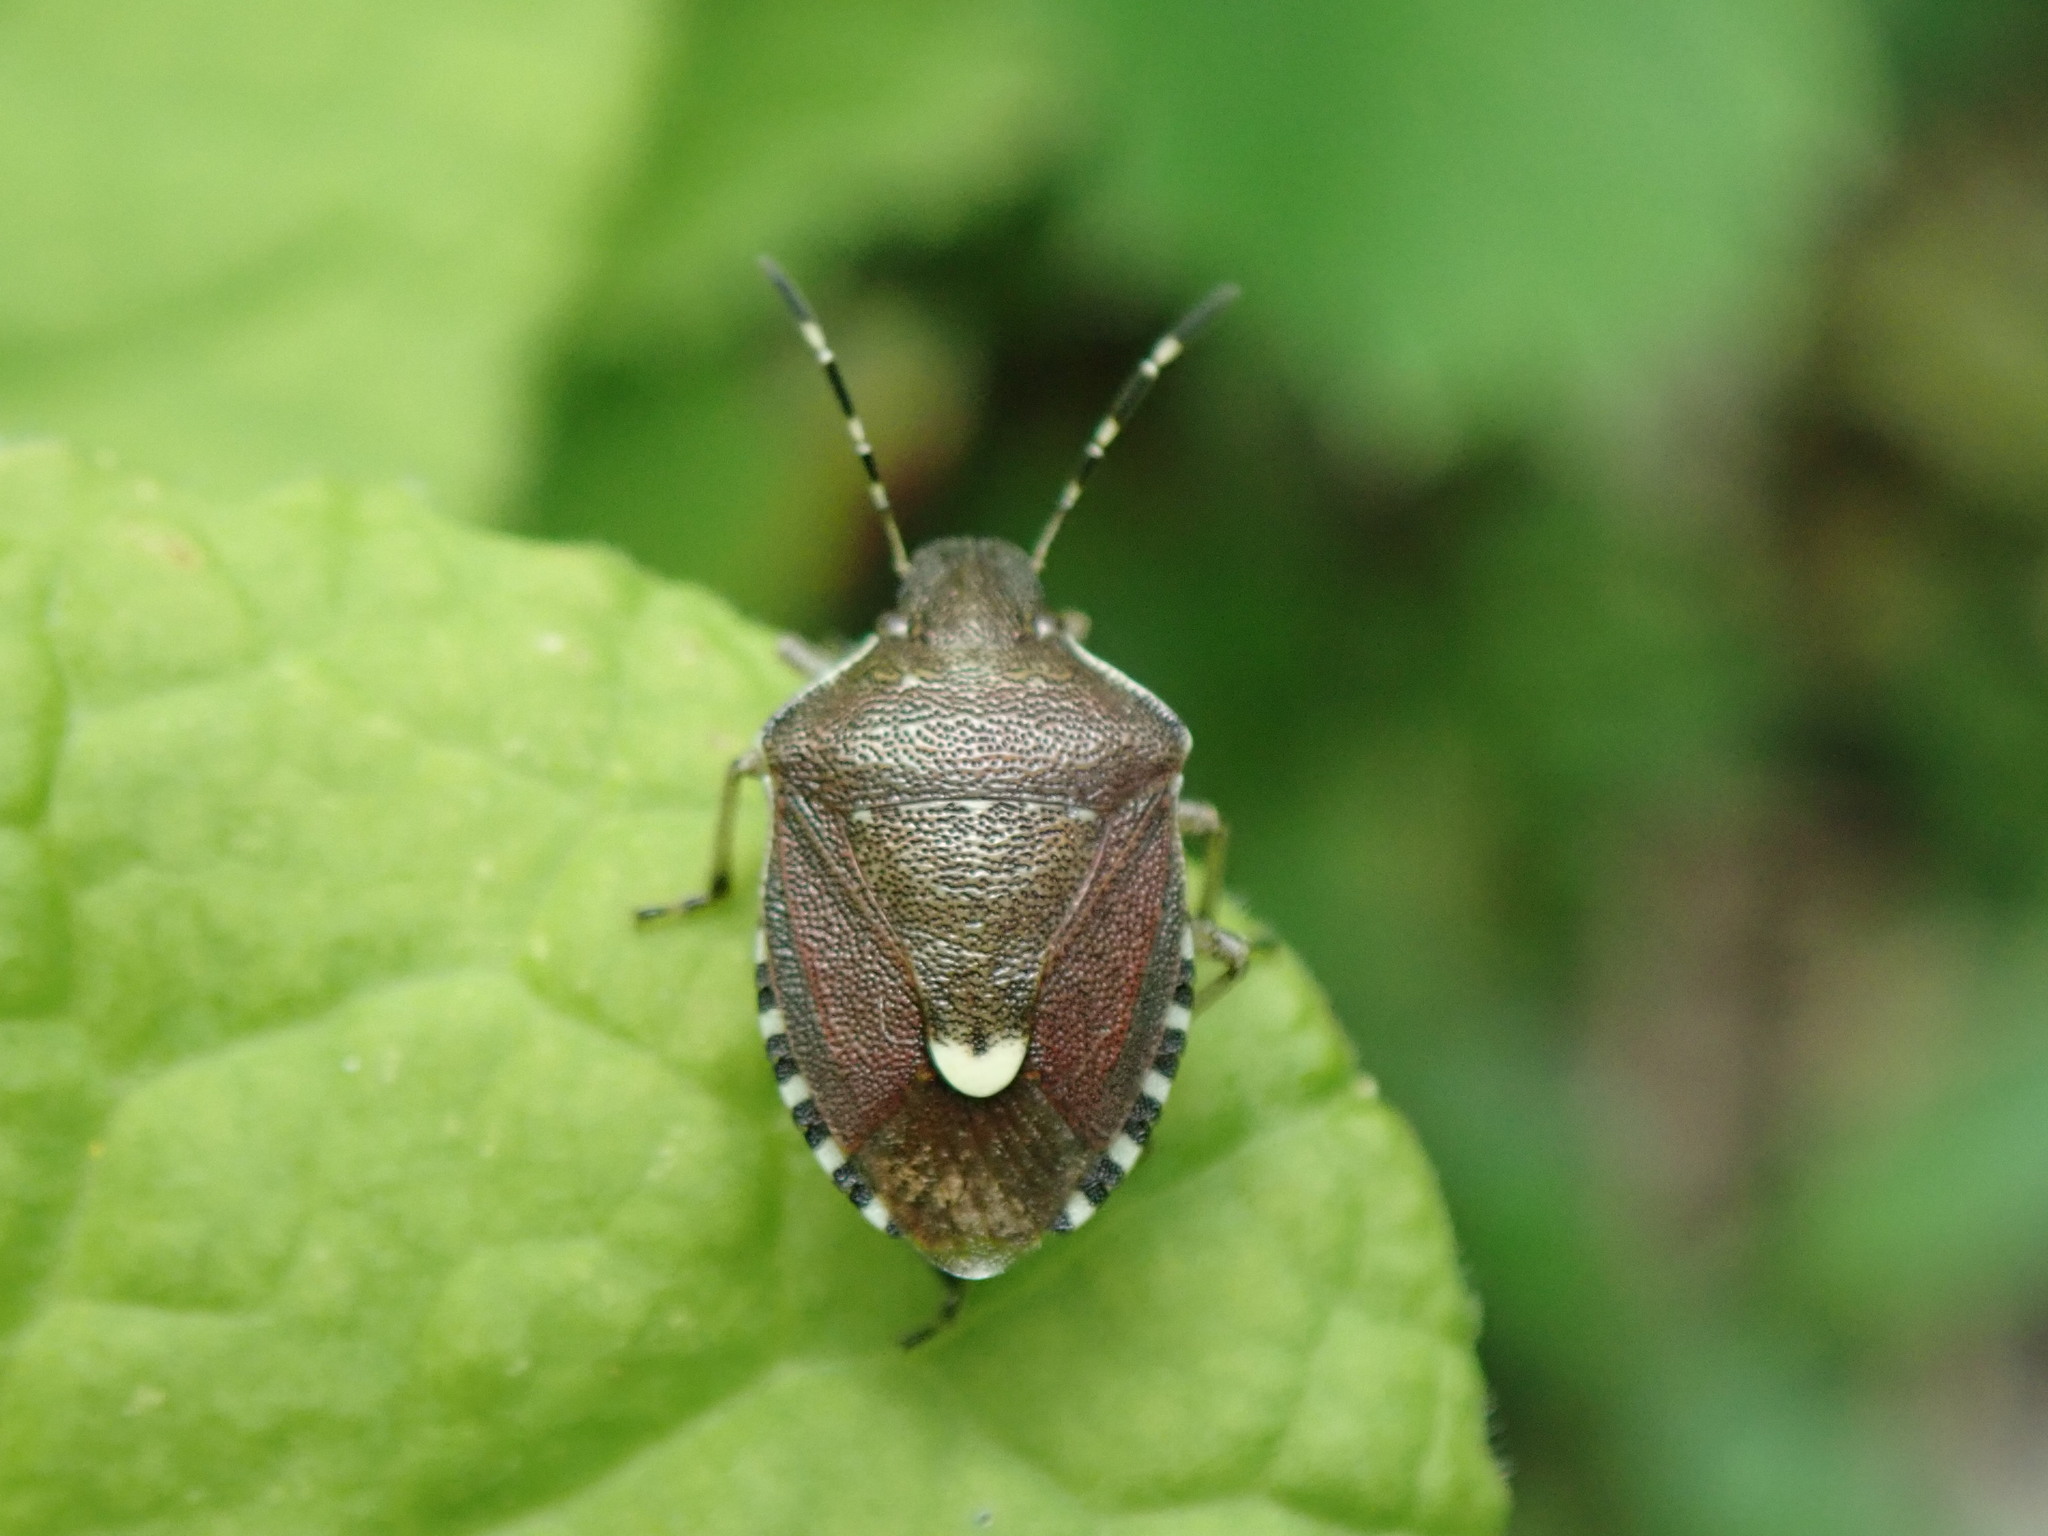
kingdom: Animalia
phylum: Arthropoda
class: Insecta
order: Hemiptera
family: Pentatomidae
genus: Holcostethus
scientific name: Holcostethus sphacelatus
